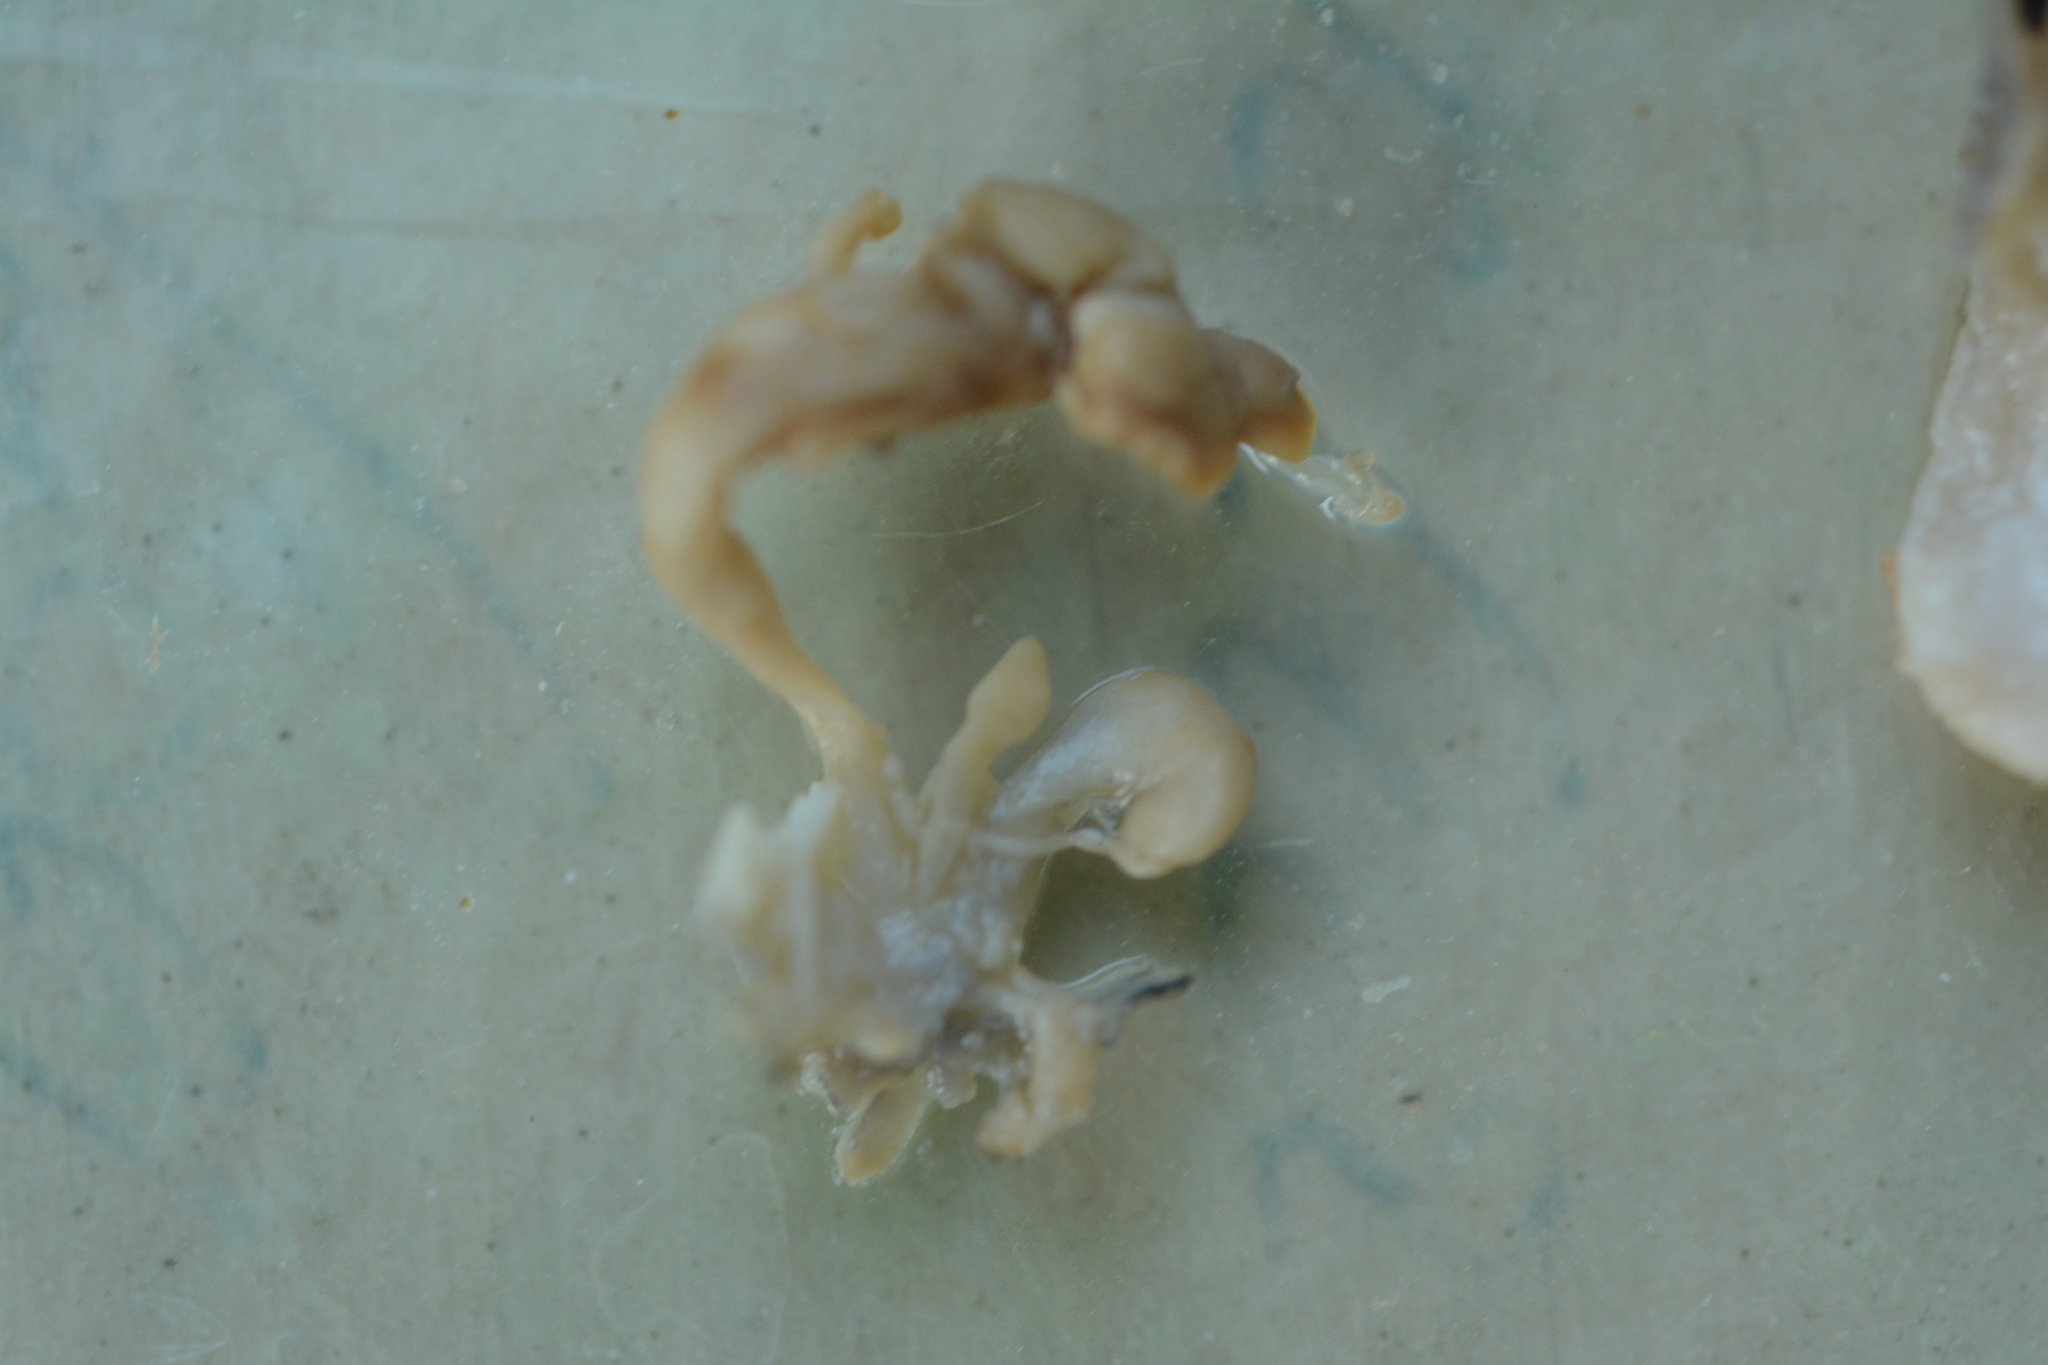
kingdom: Animalia
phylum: Mollusca
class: Gastropoda
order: Stylommatophora
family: Limacidae
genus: Limacus
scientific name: Limacus maculatus
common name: Irish yellow slug
